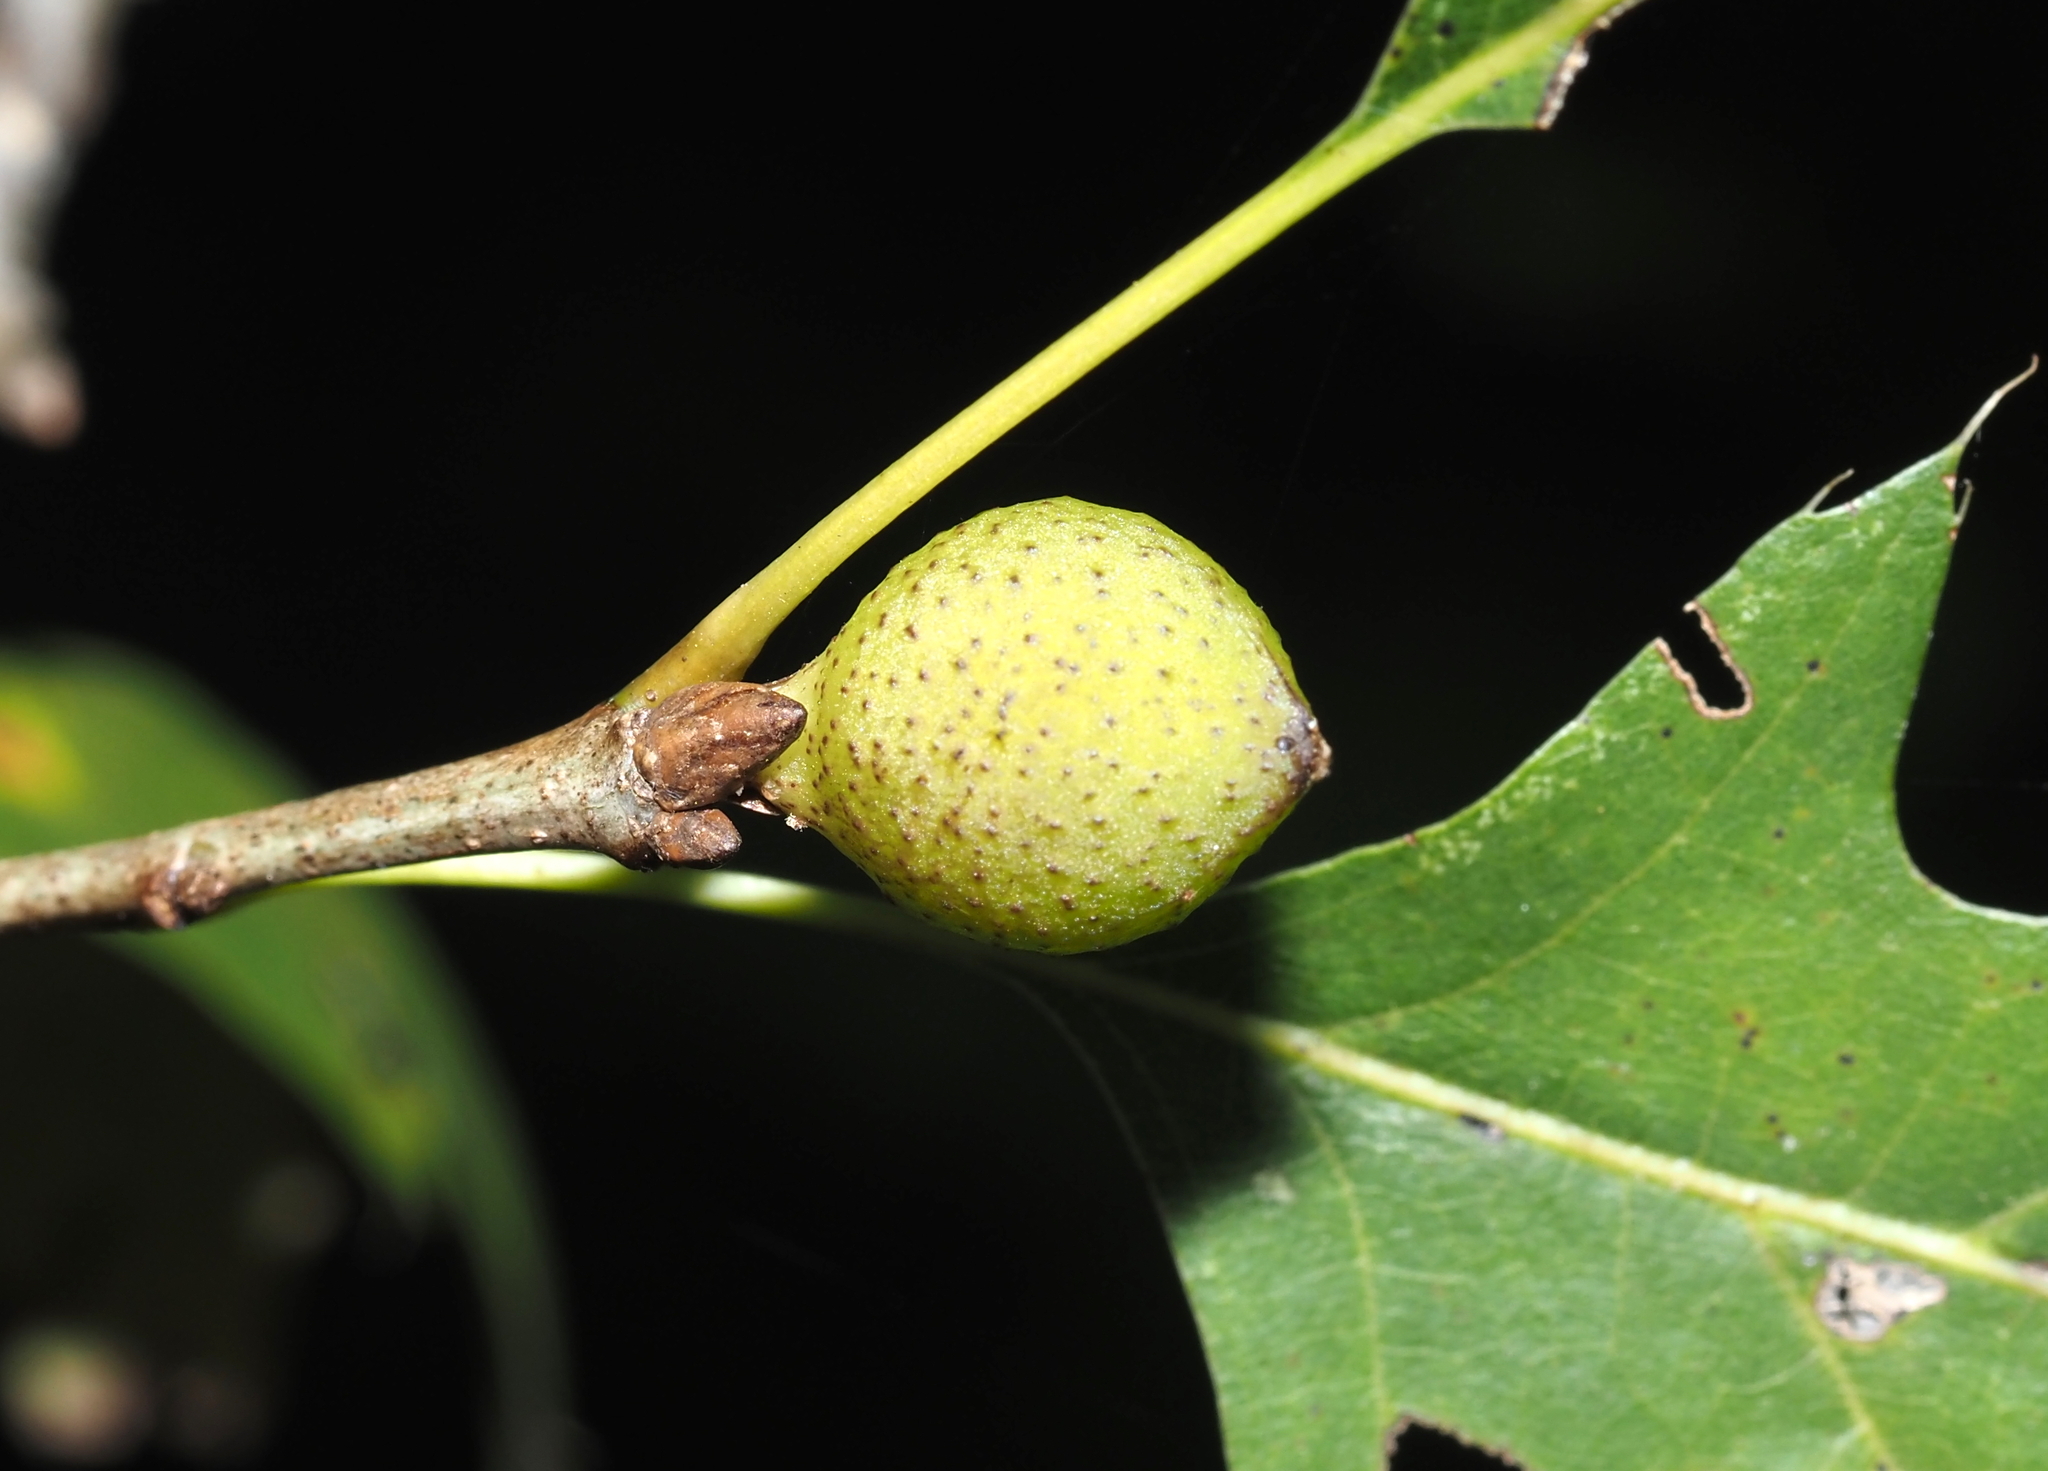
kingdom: Animalia
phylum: Arthropoda
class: Insecta
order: Hymenoptera
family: Cynipidae
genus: Amphibolips
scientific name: Amphibolips
